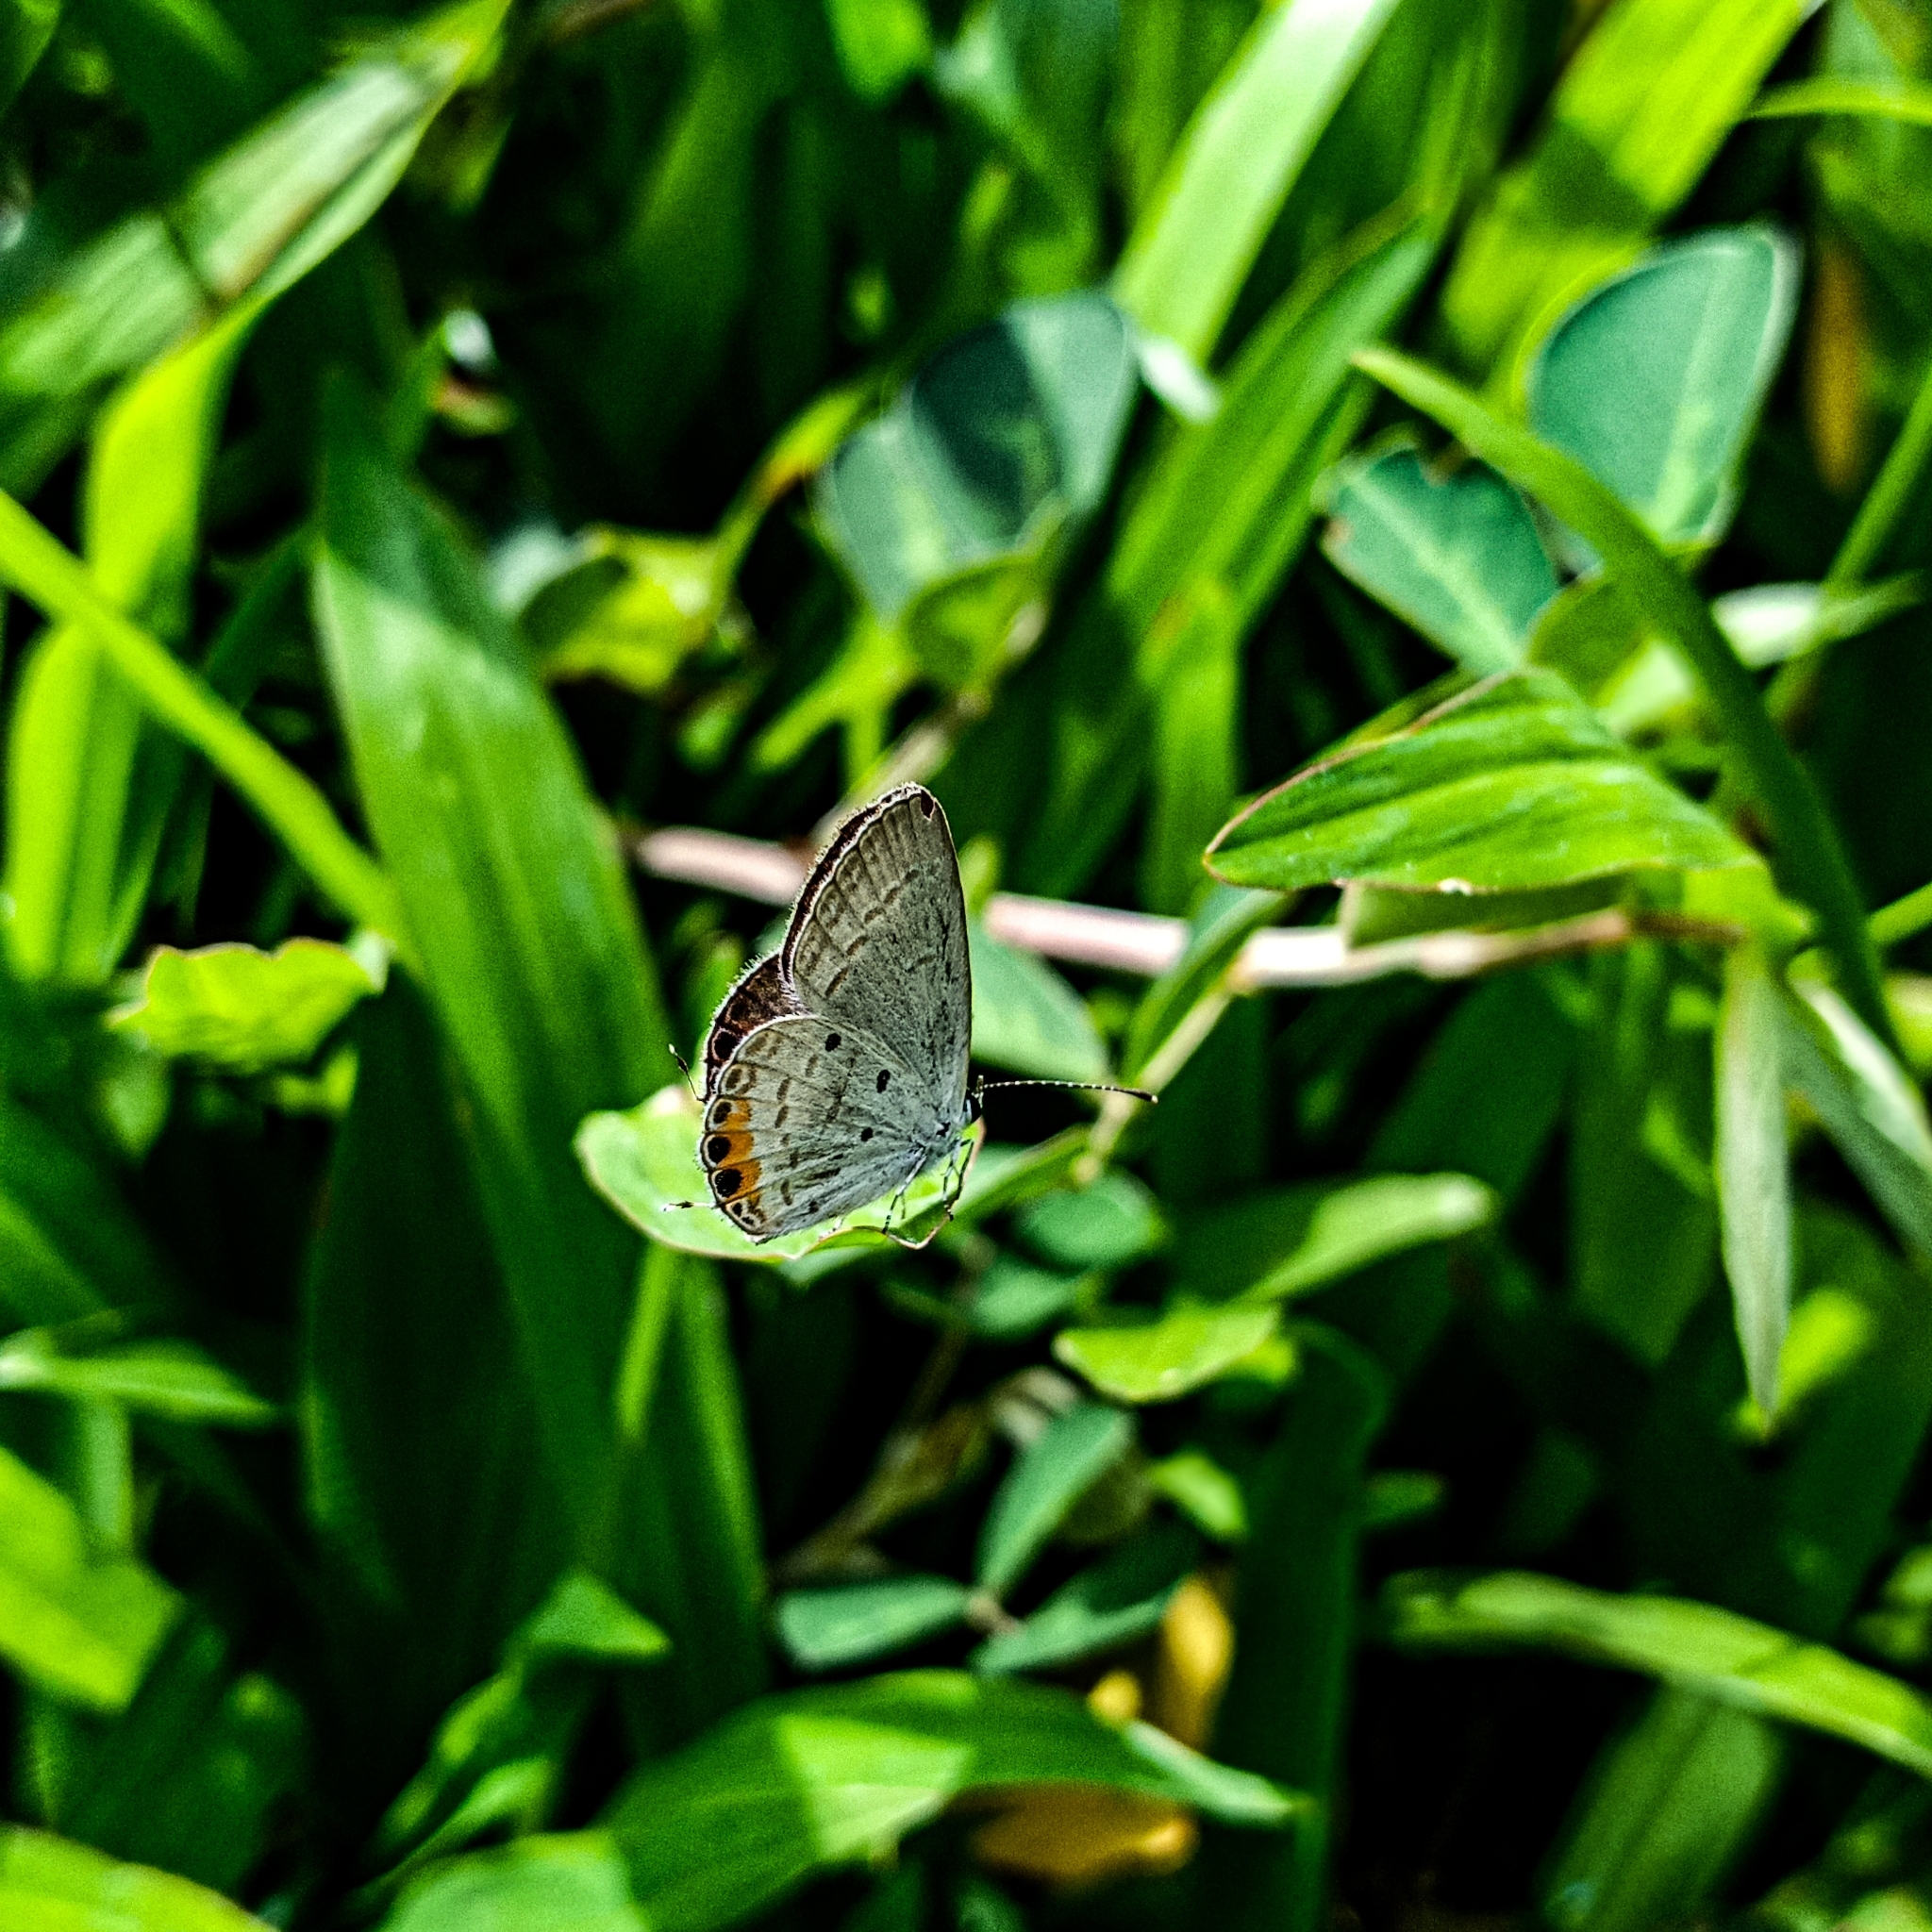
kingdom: Animalia
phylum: Arthropoda
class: Insecta
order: Lepidoptera
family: Lycaenidae
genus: Everes
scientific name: Everes lacturnus
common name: Orange-tipped pea-blue
